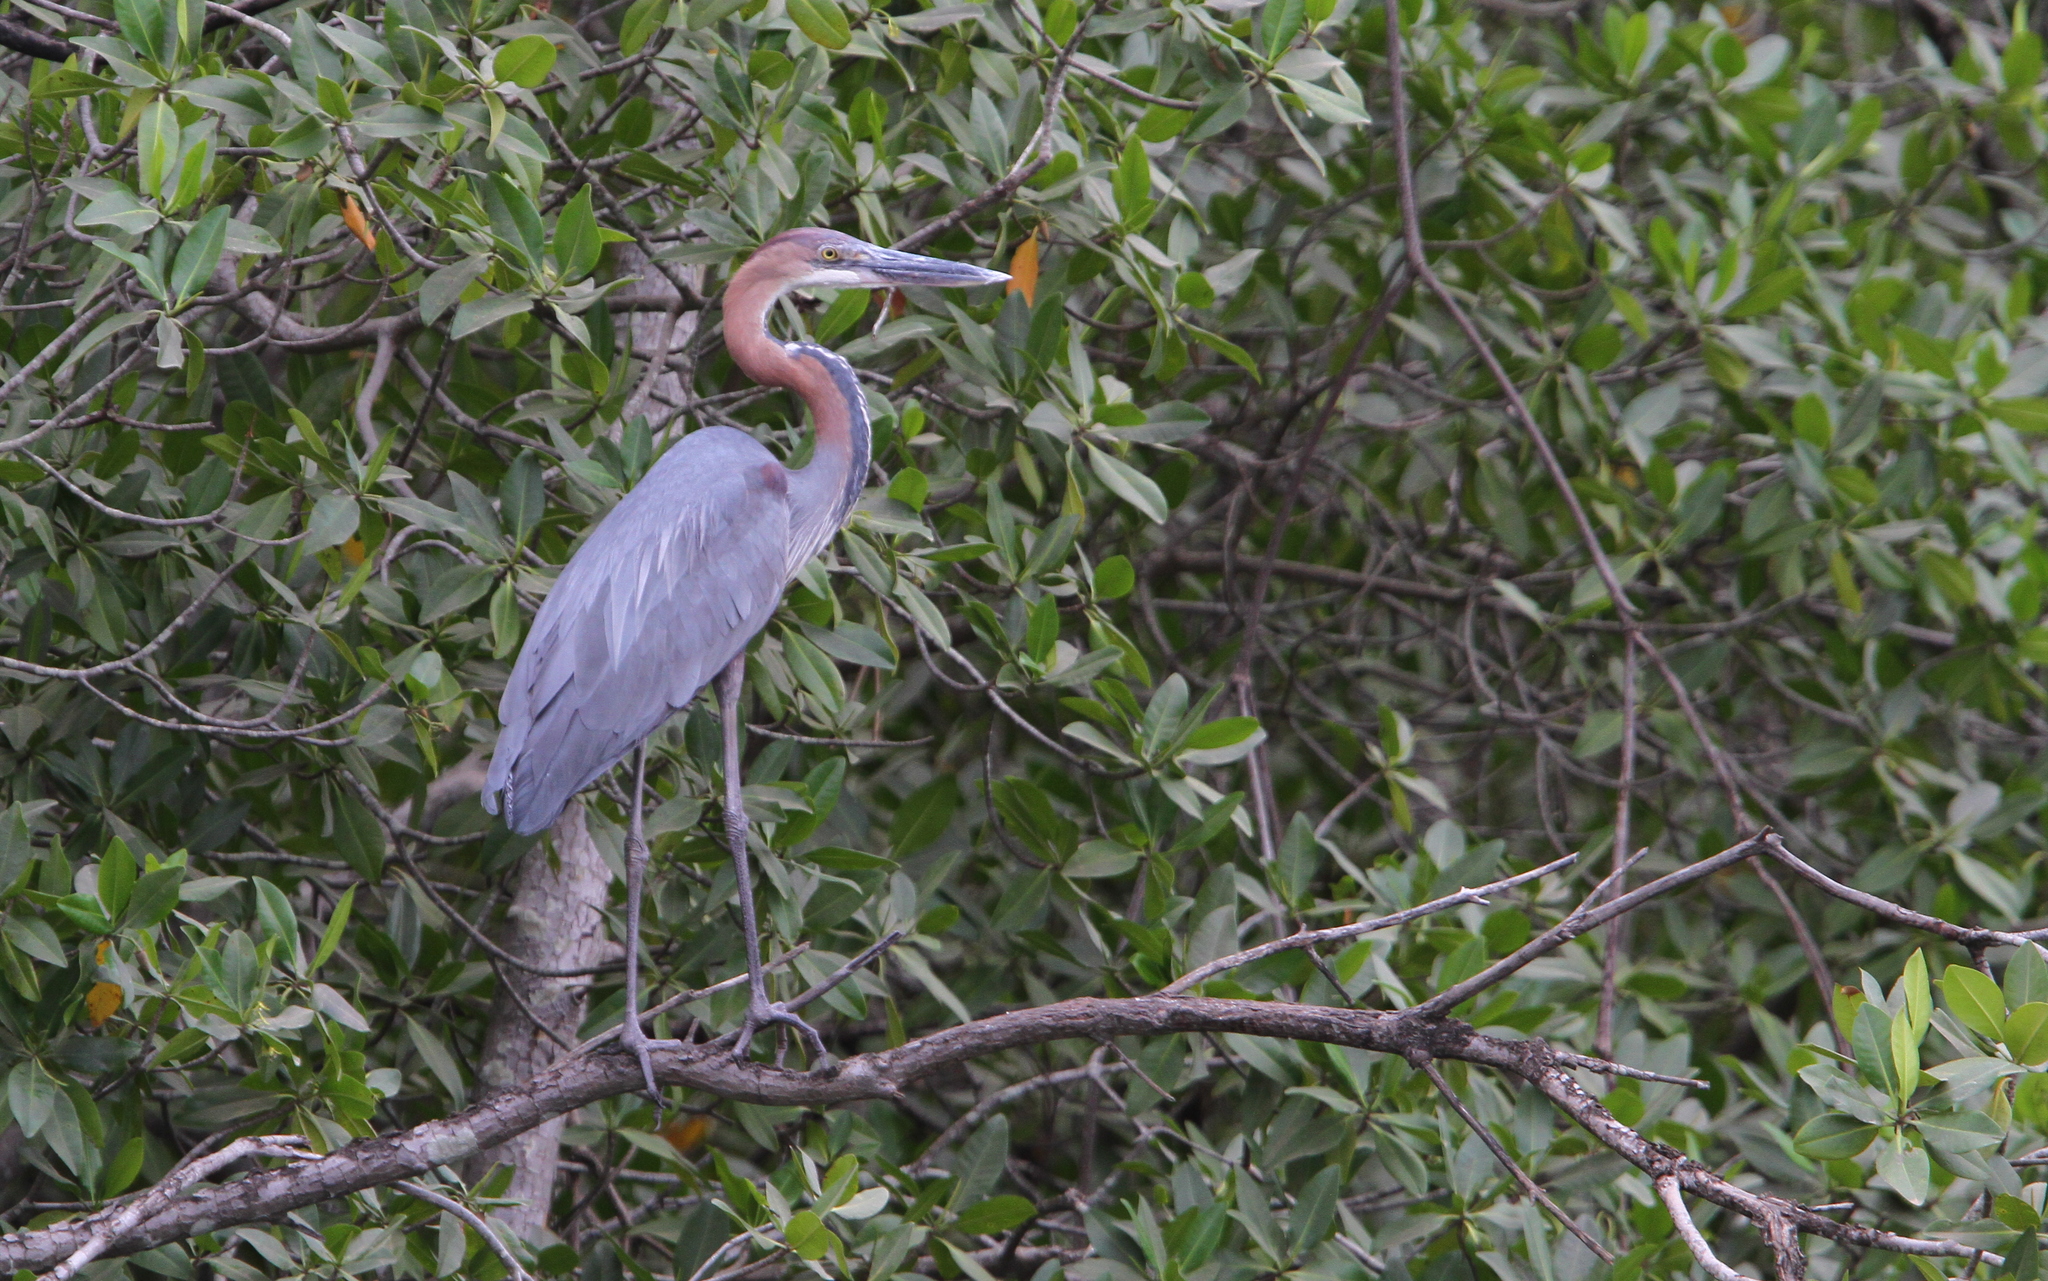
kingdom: Animalia
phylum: Chordata
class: Aves
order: Pelecaniformes
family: Ardeidae
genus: Ardea
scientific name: Ardea goliath
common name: Goliath heron
